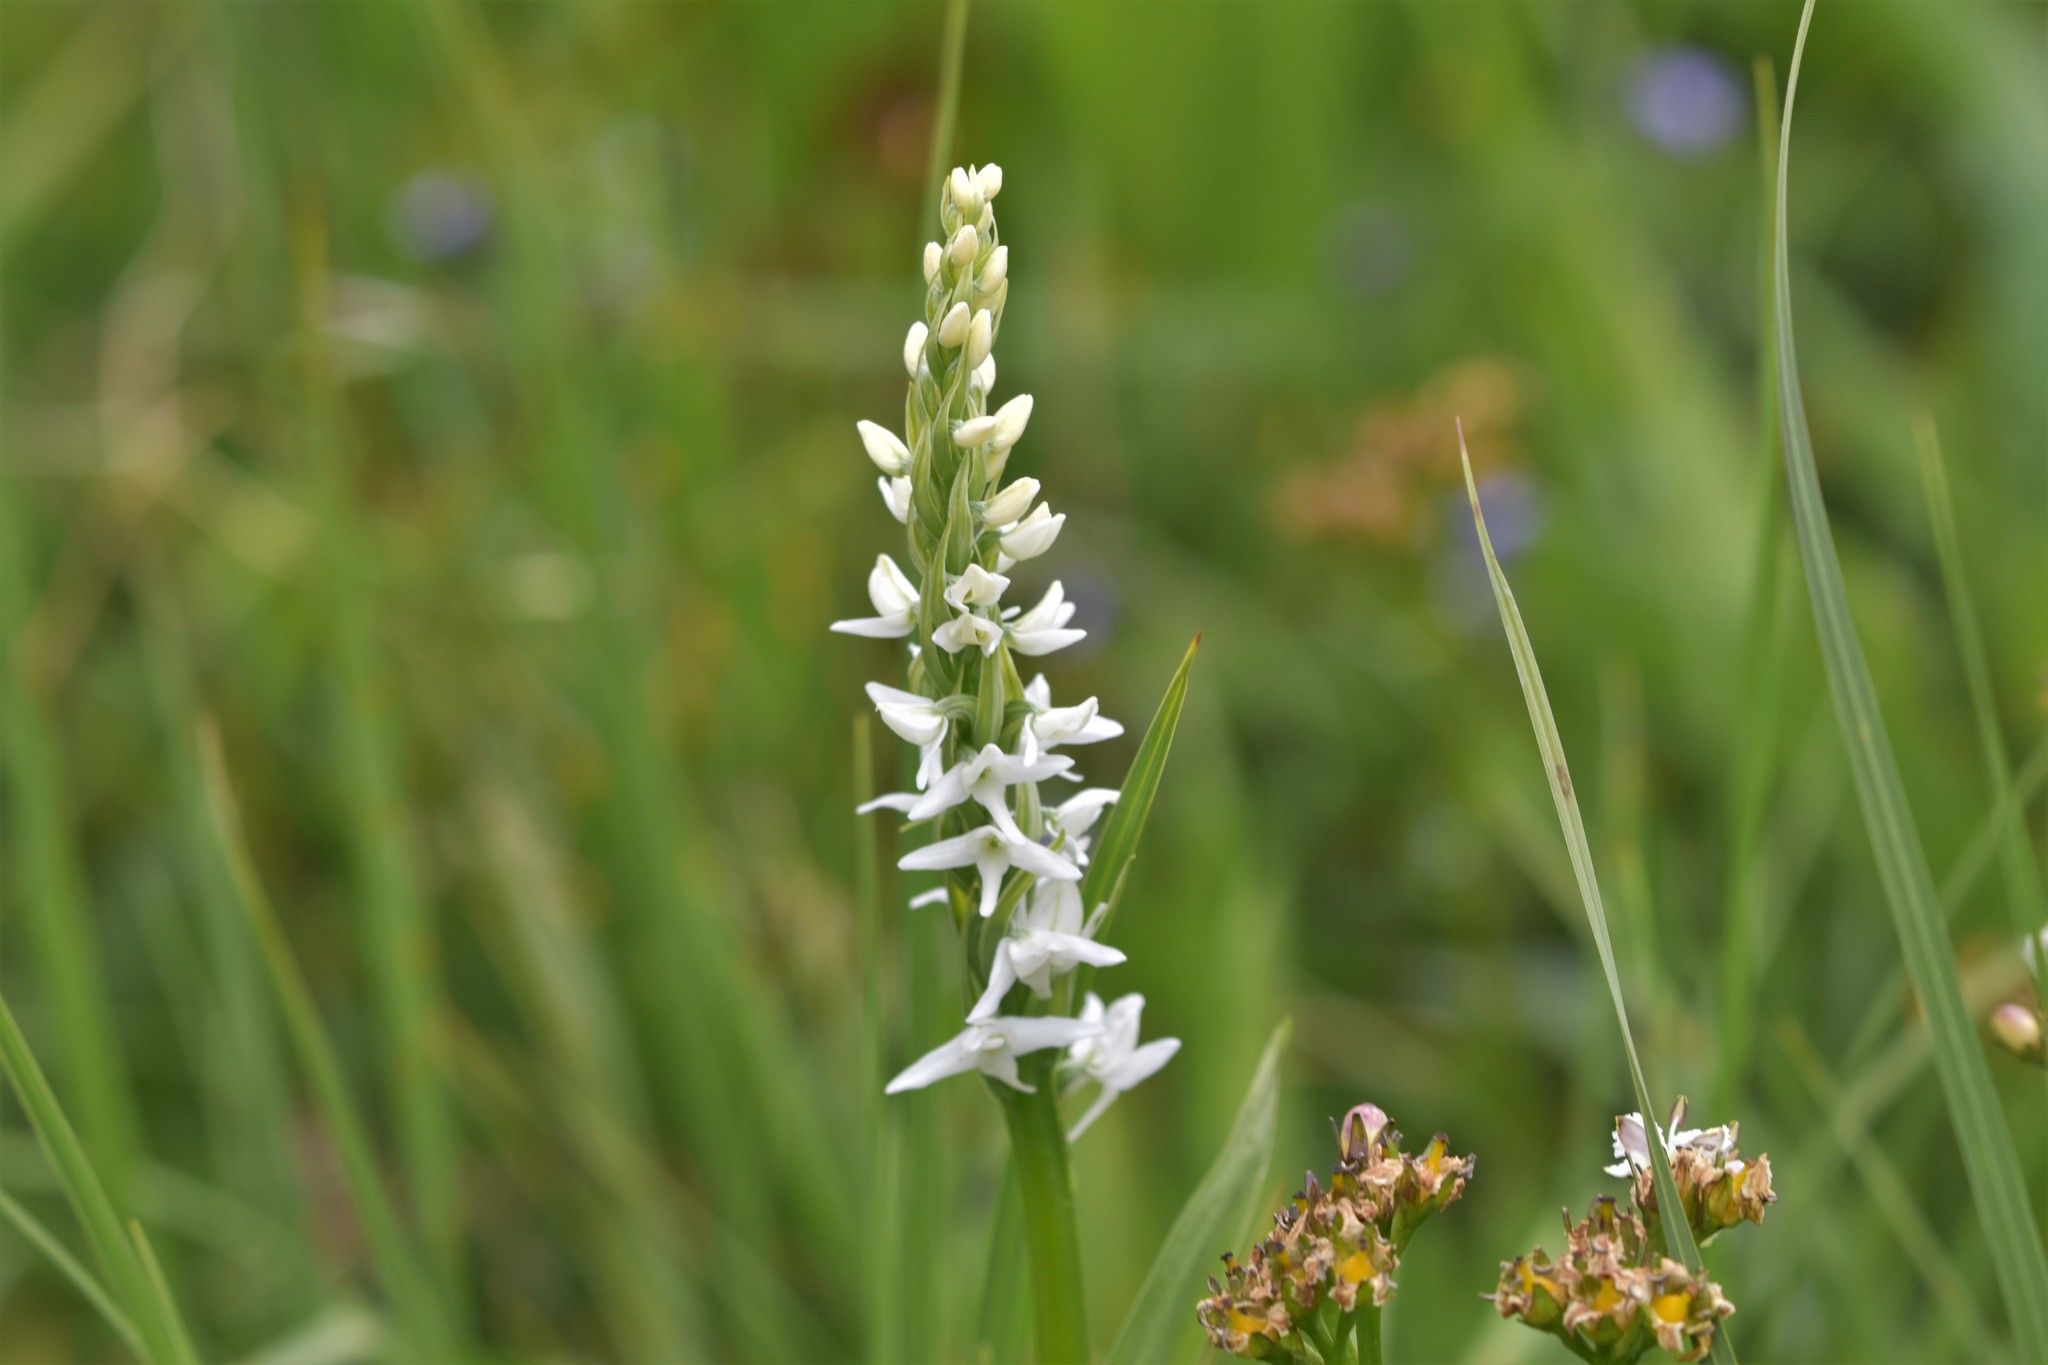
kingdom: Plantae
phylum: Tracheophyta
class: Liliopsida
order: Asparagales
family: Orchidaceae
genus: Platanthera
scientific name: Platanthera dilatata
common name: Bog candles
